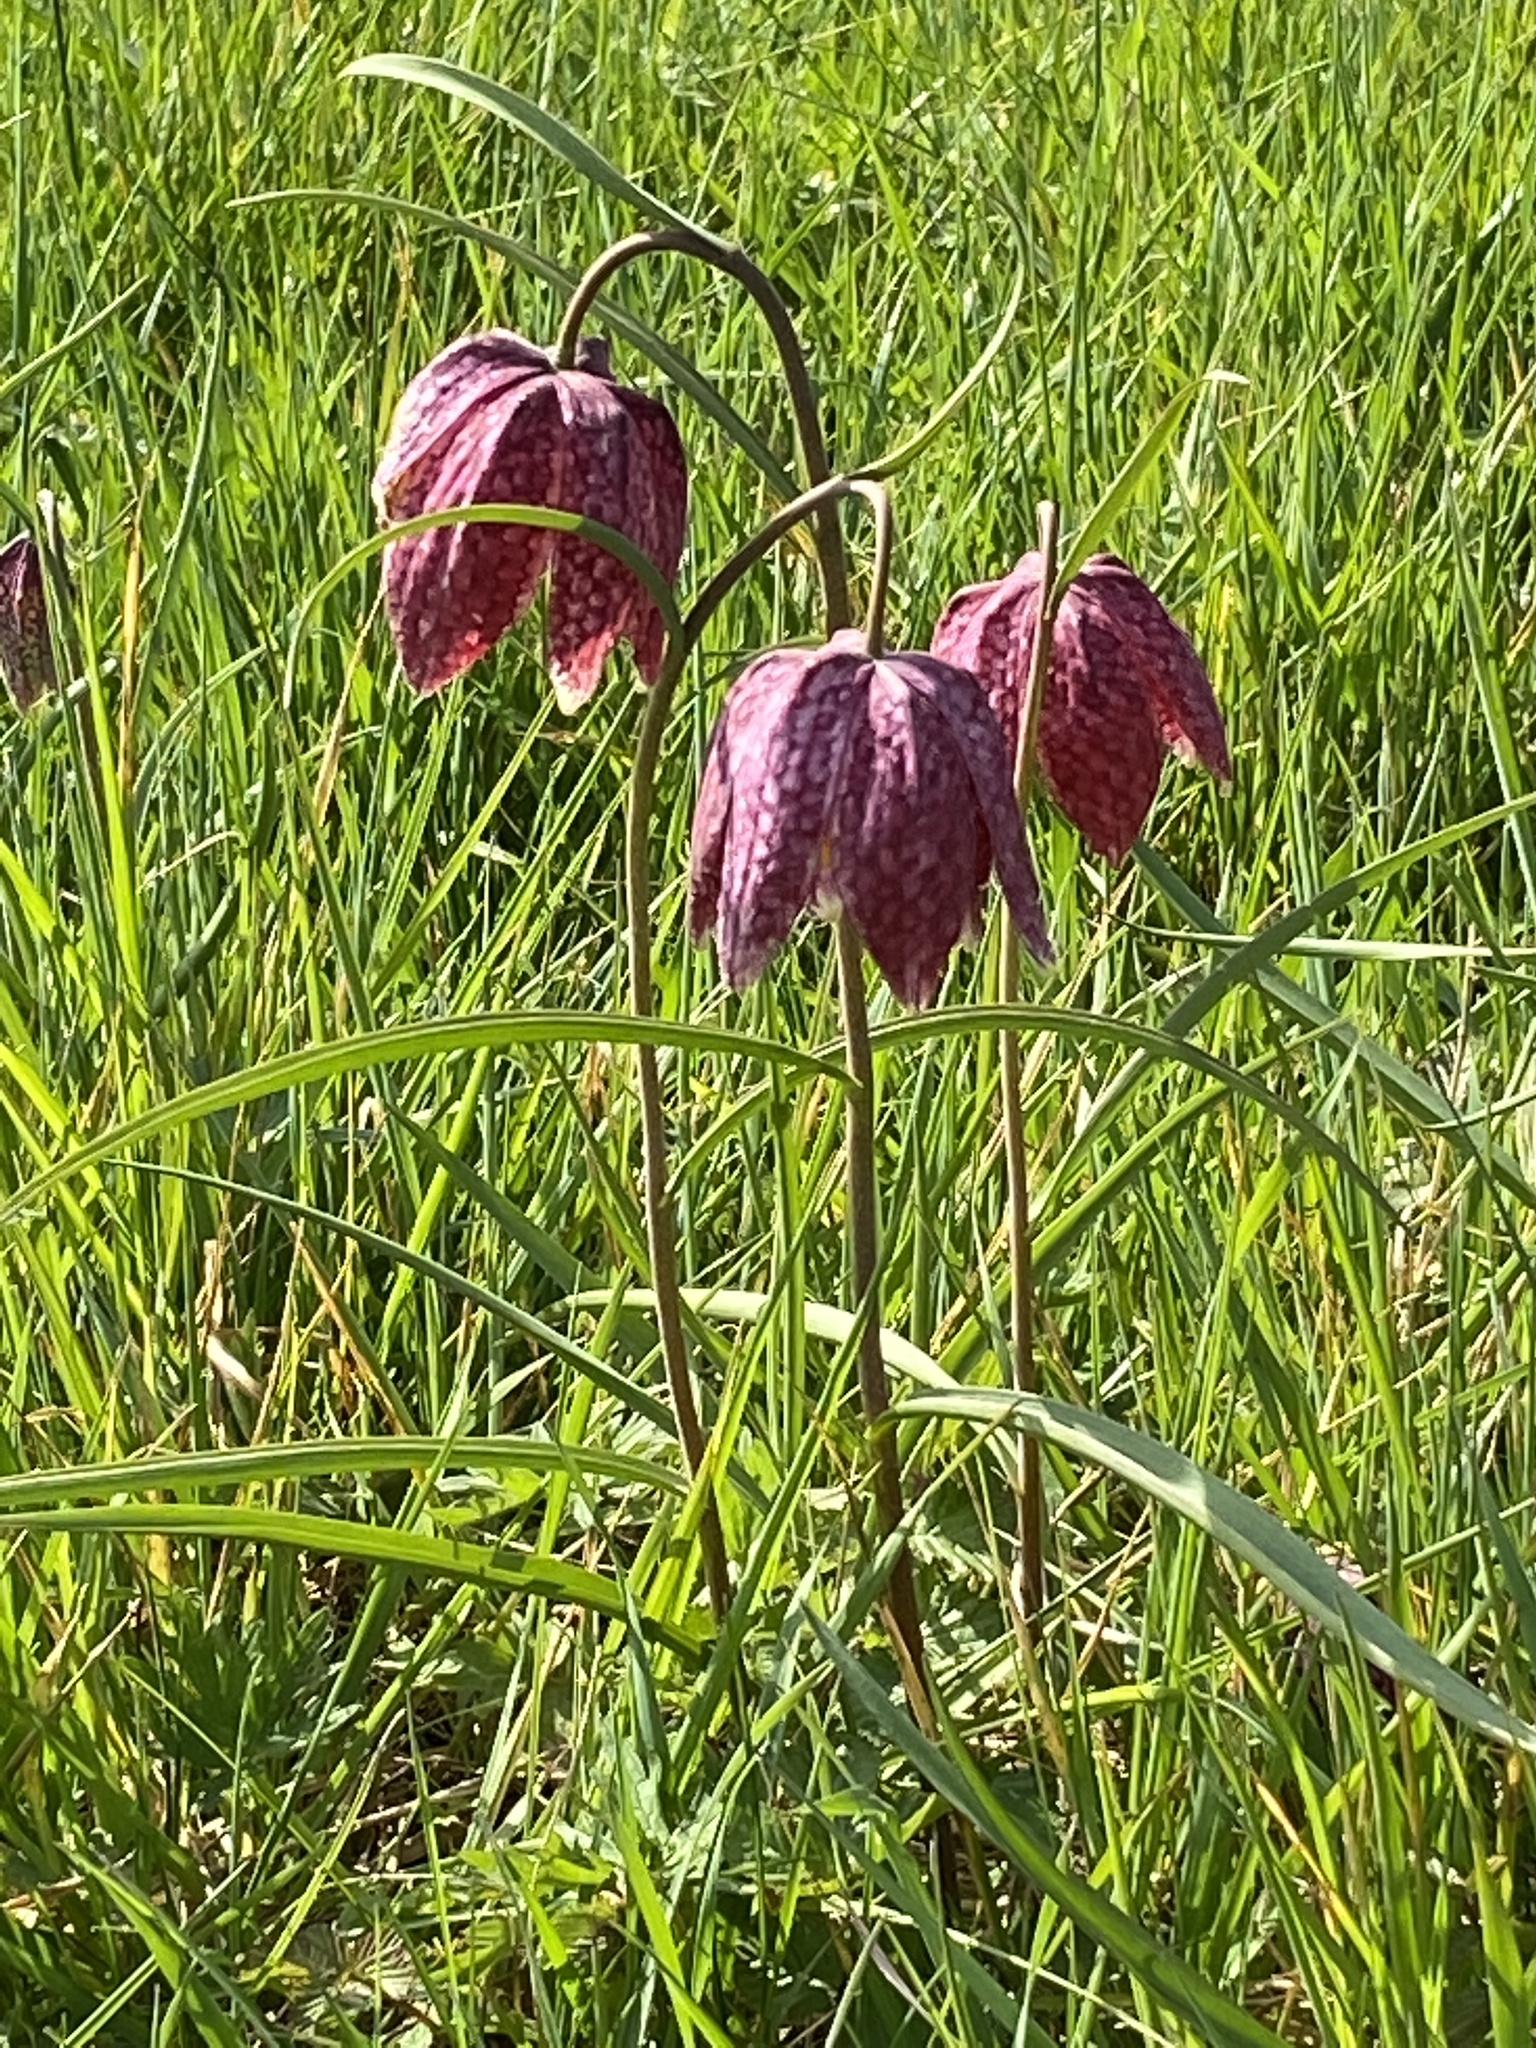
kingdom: Plantae
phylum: Tracheophyta
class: Liliopsida
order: Liliales
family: Liliaceae
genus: Fritillaria
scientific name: Fritillaria meleagris
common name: Fritillary
